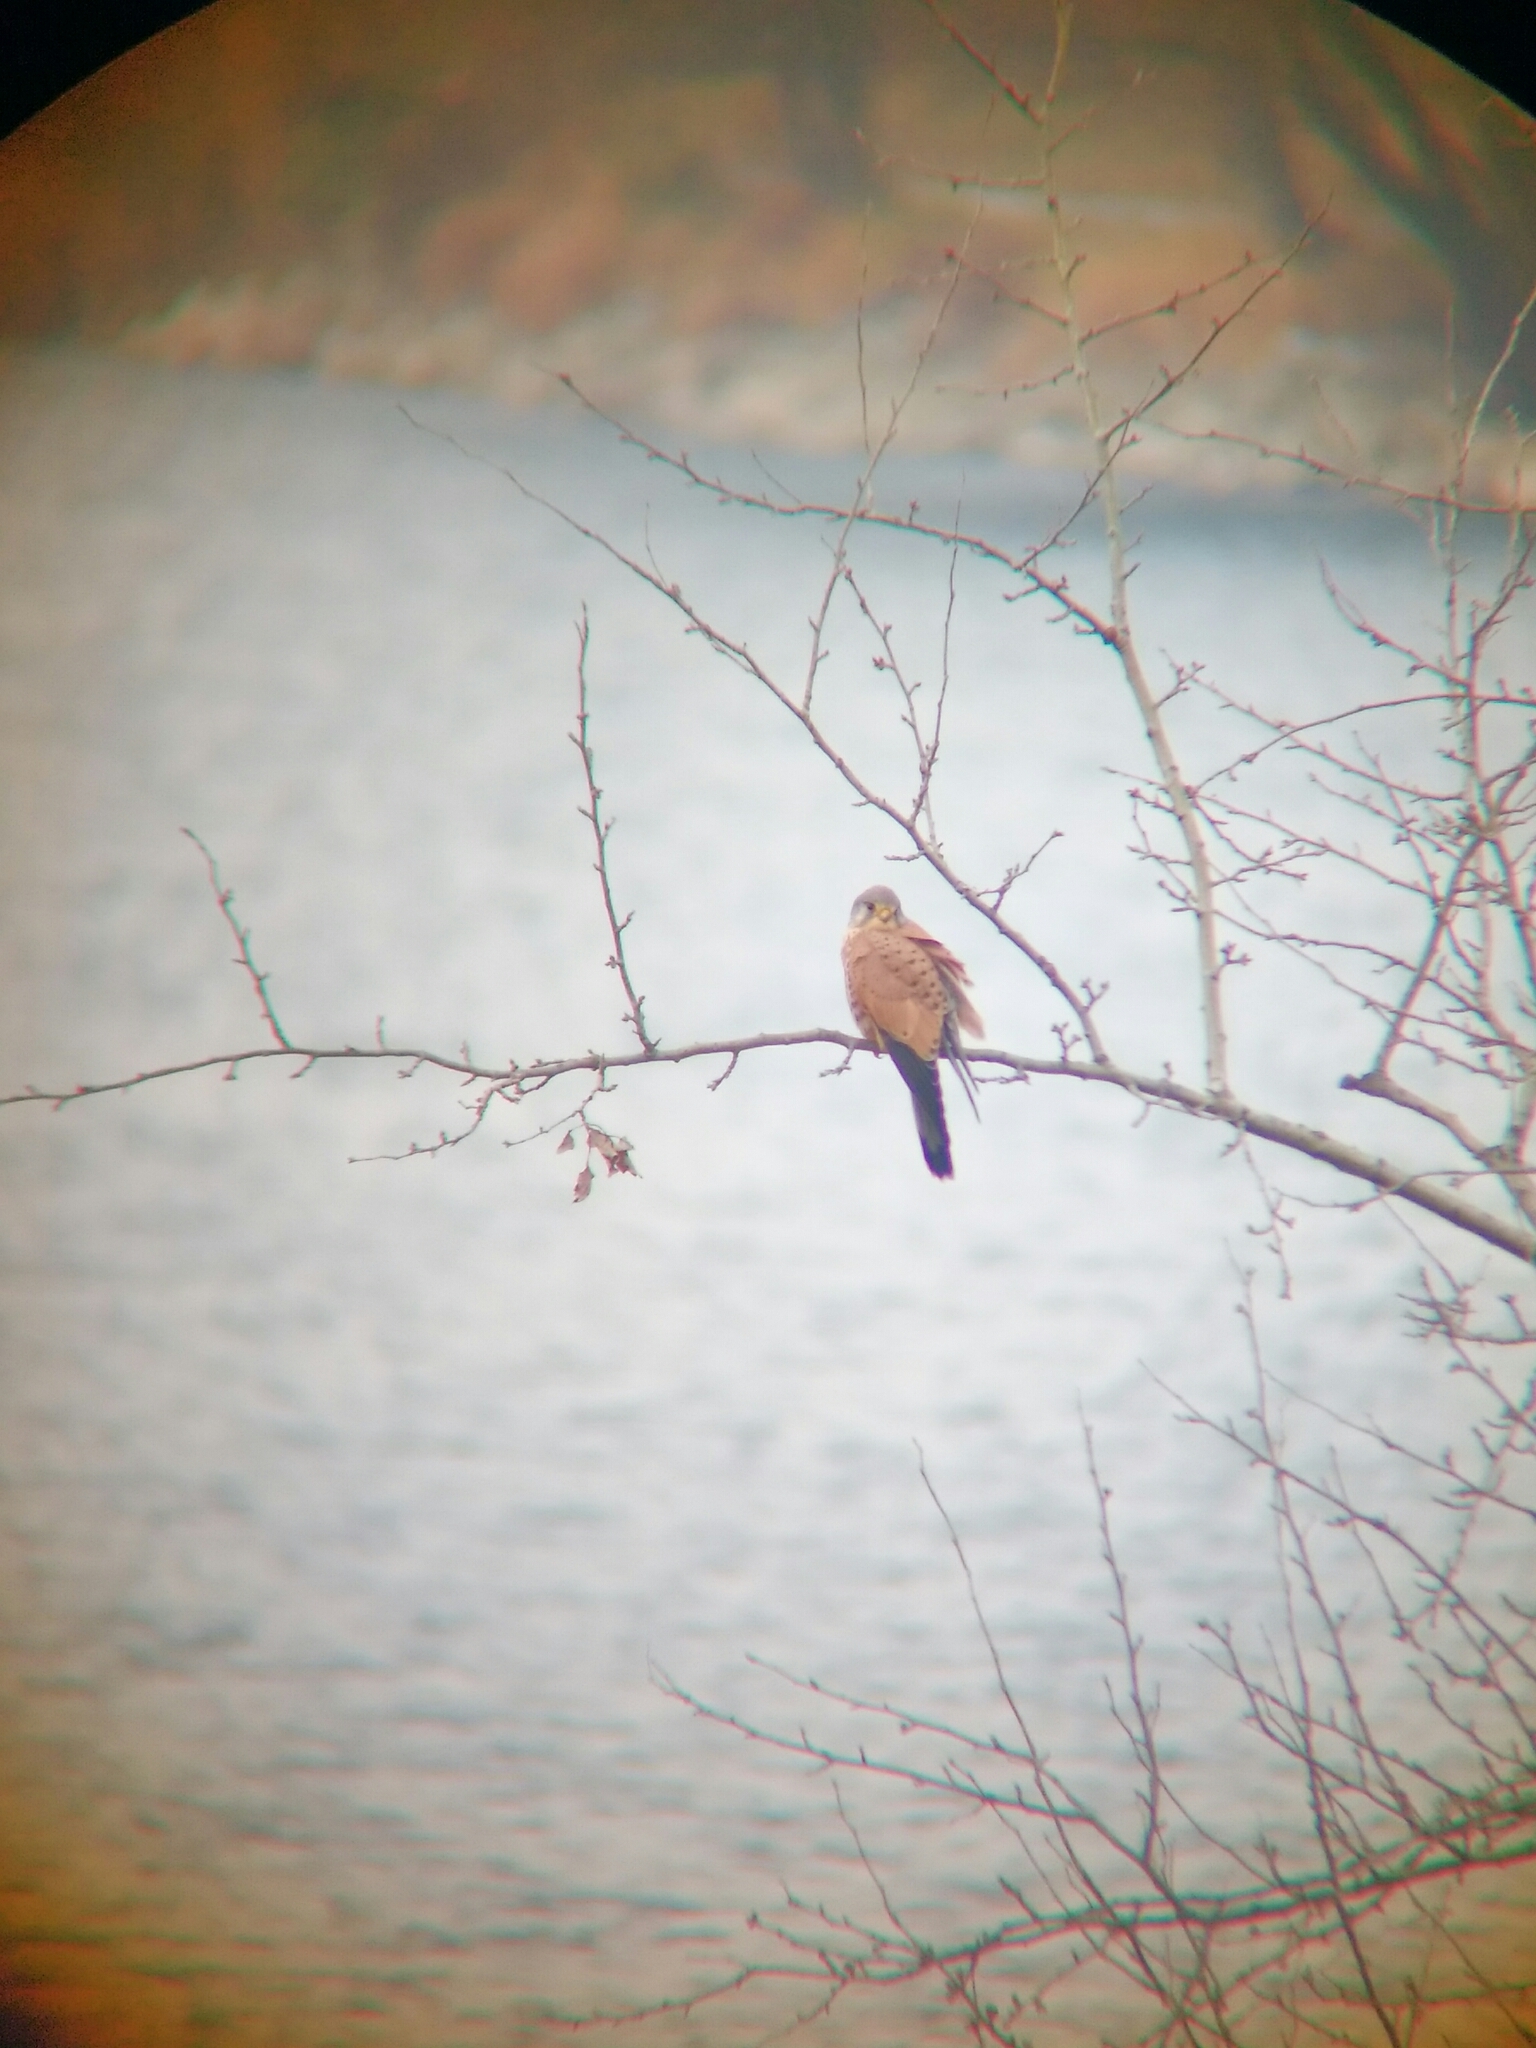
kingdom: Animalia
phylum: Chordata
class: Aves
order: Falconiformes
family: Falconidae
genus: Falco
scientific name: Falco tinnunculus
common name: Common kestrel
